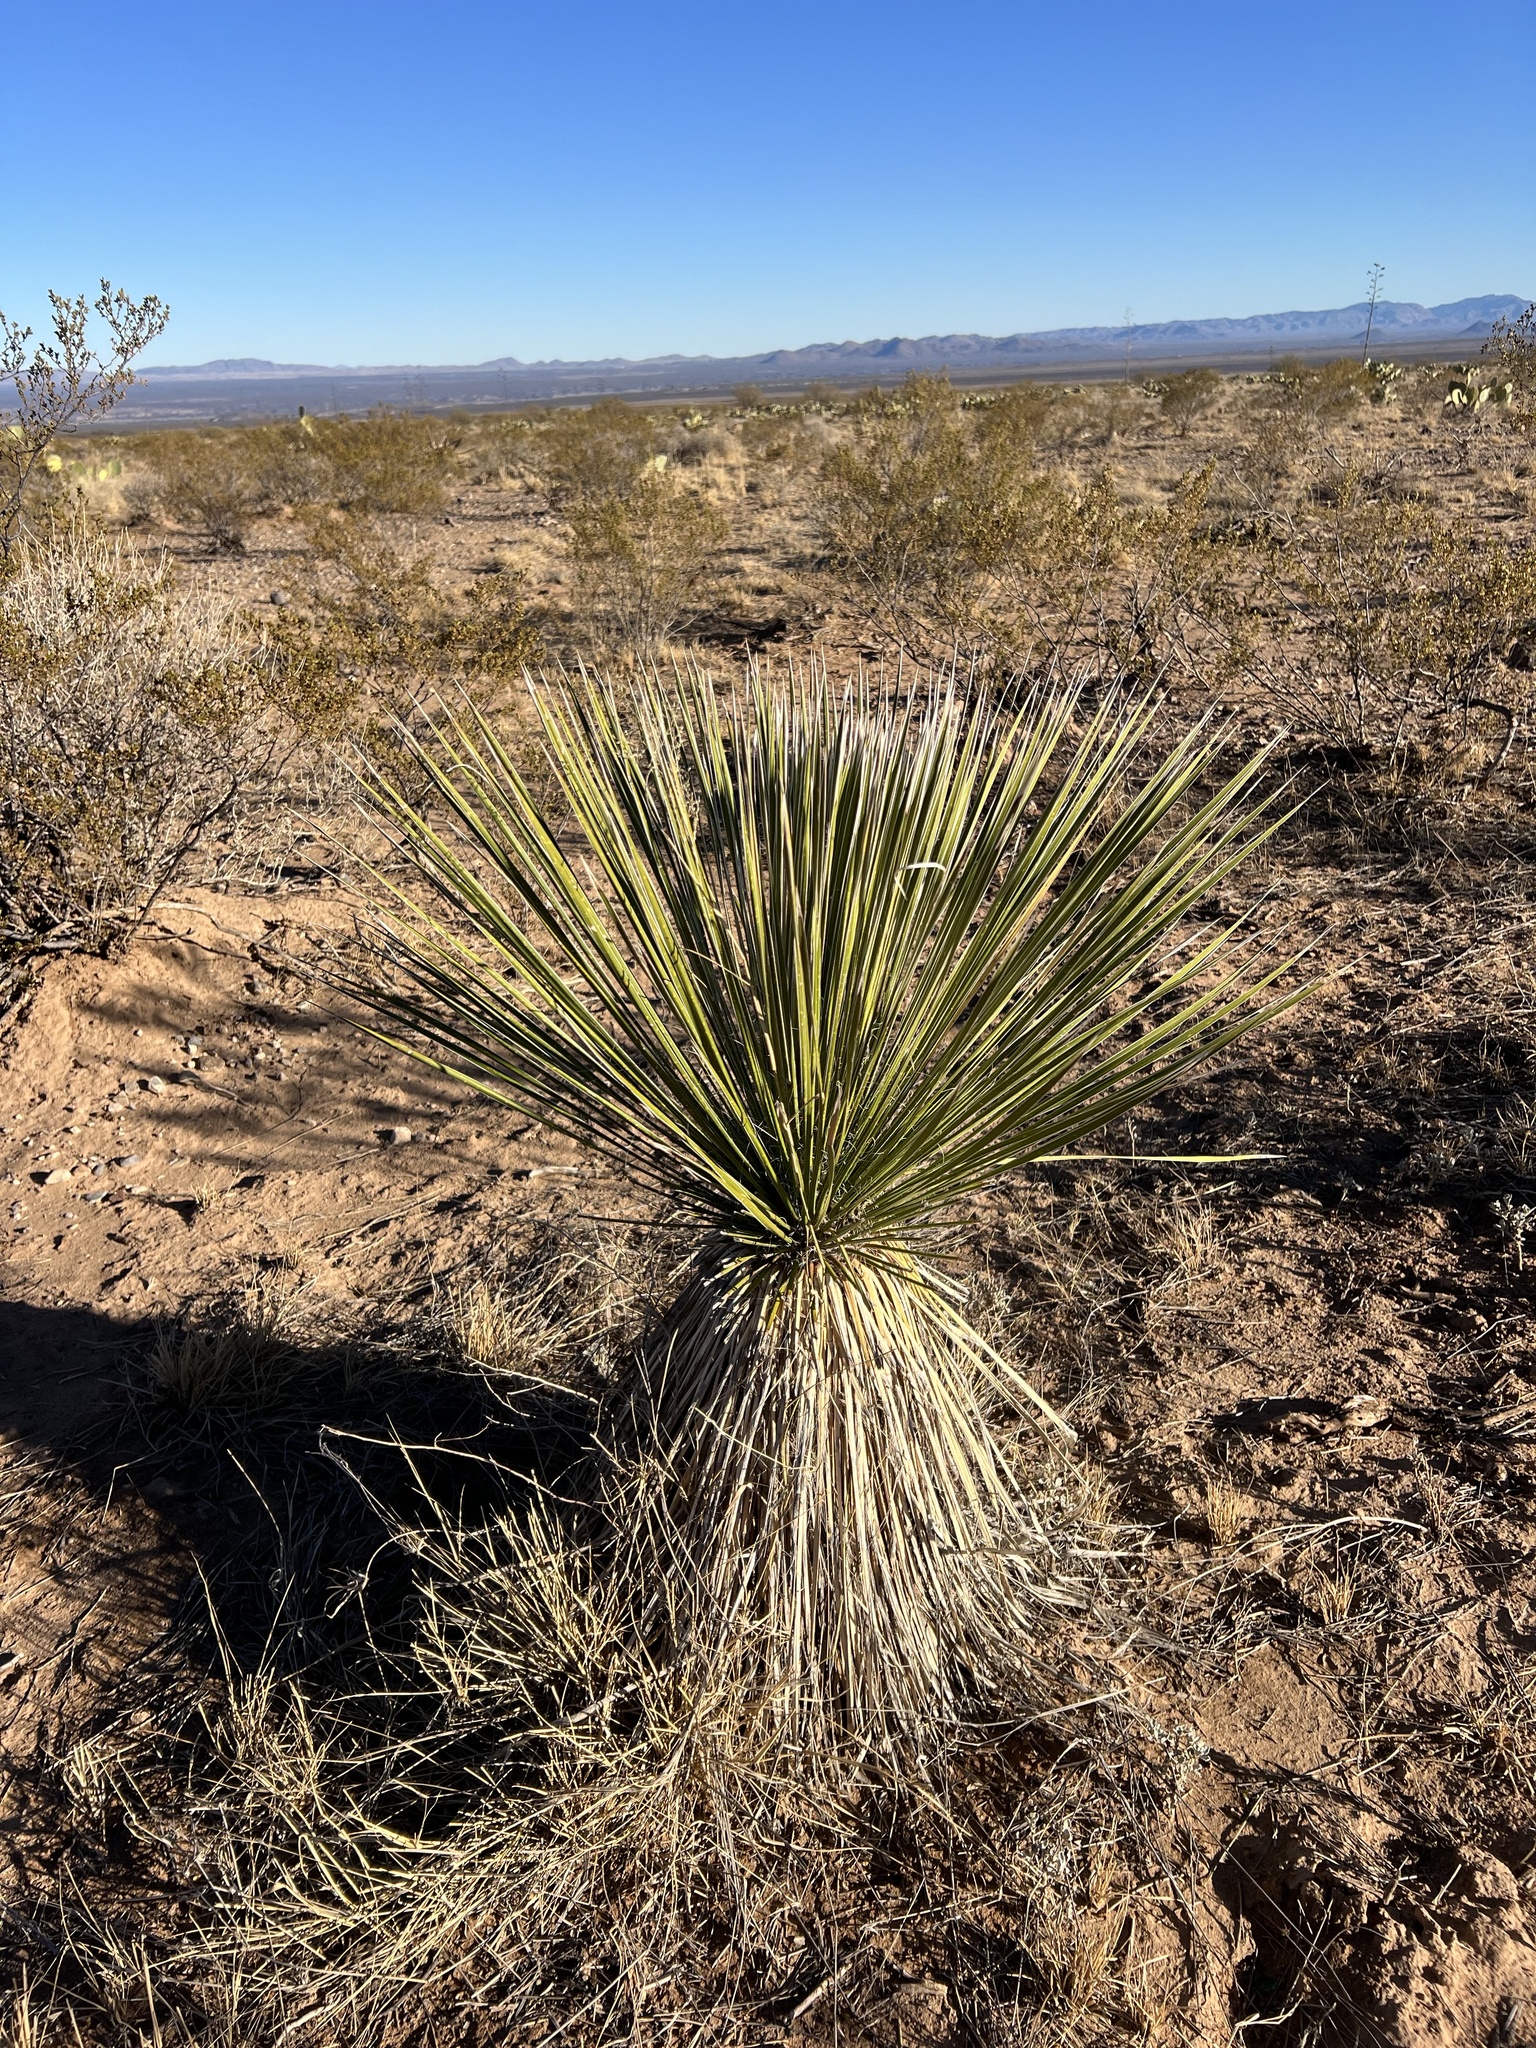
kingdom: Plantae
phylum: Tracheophyta
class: Liliopsida
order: Asparagales
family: Asparagaceae
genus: Yucca
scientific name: Yucca elata
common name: Palmella
